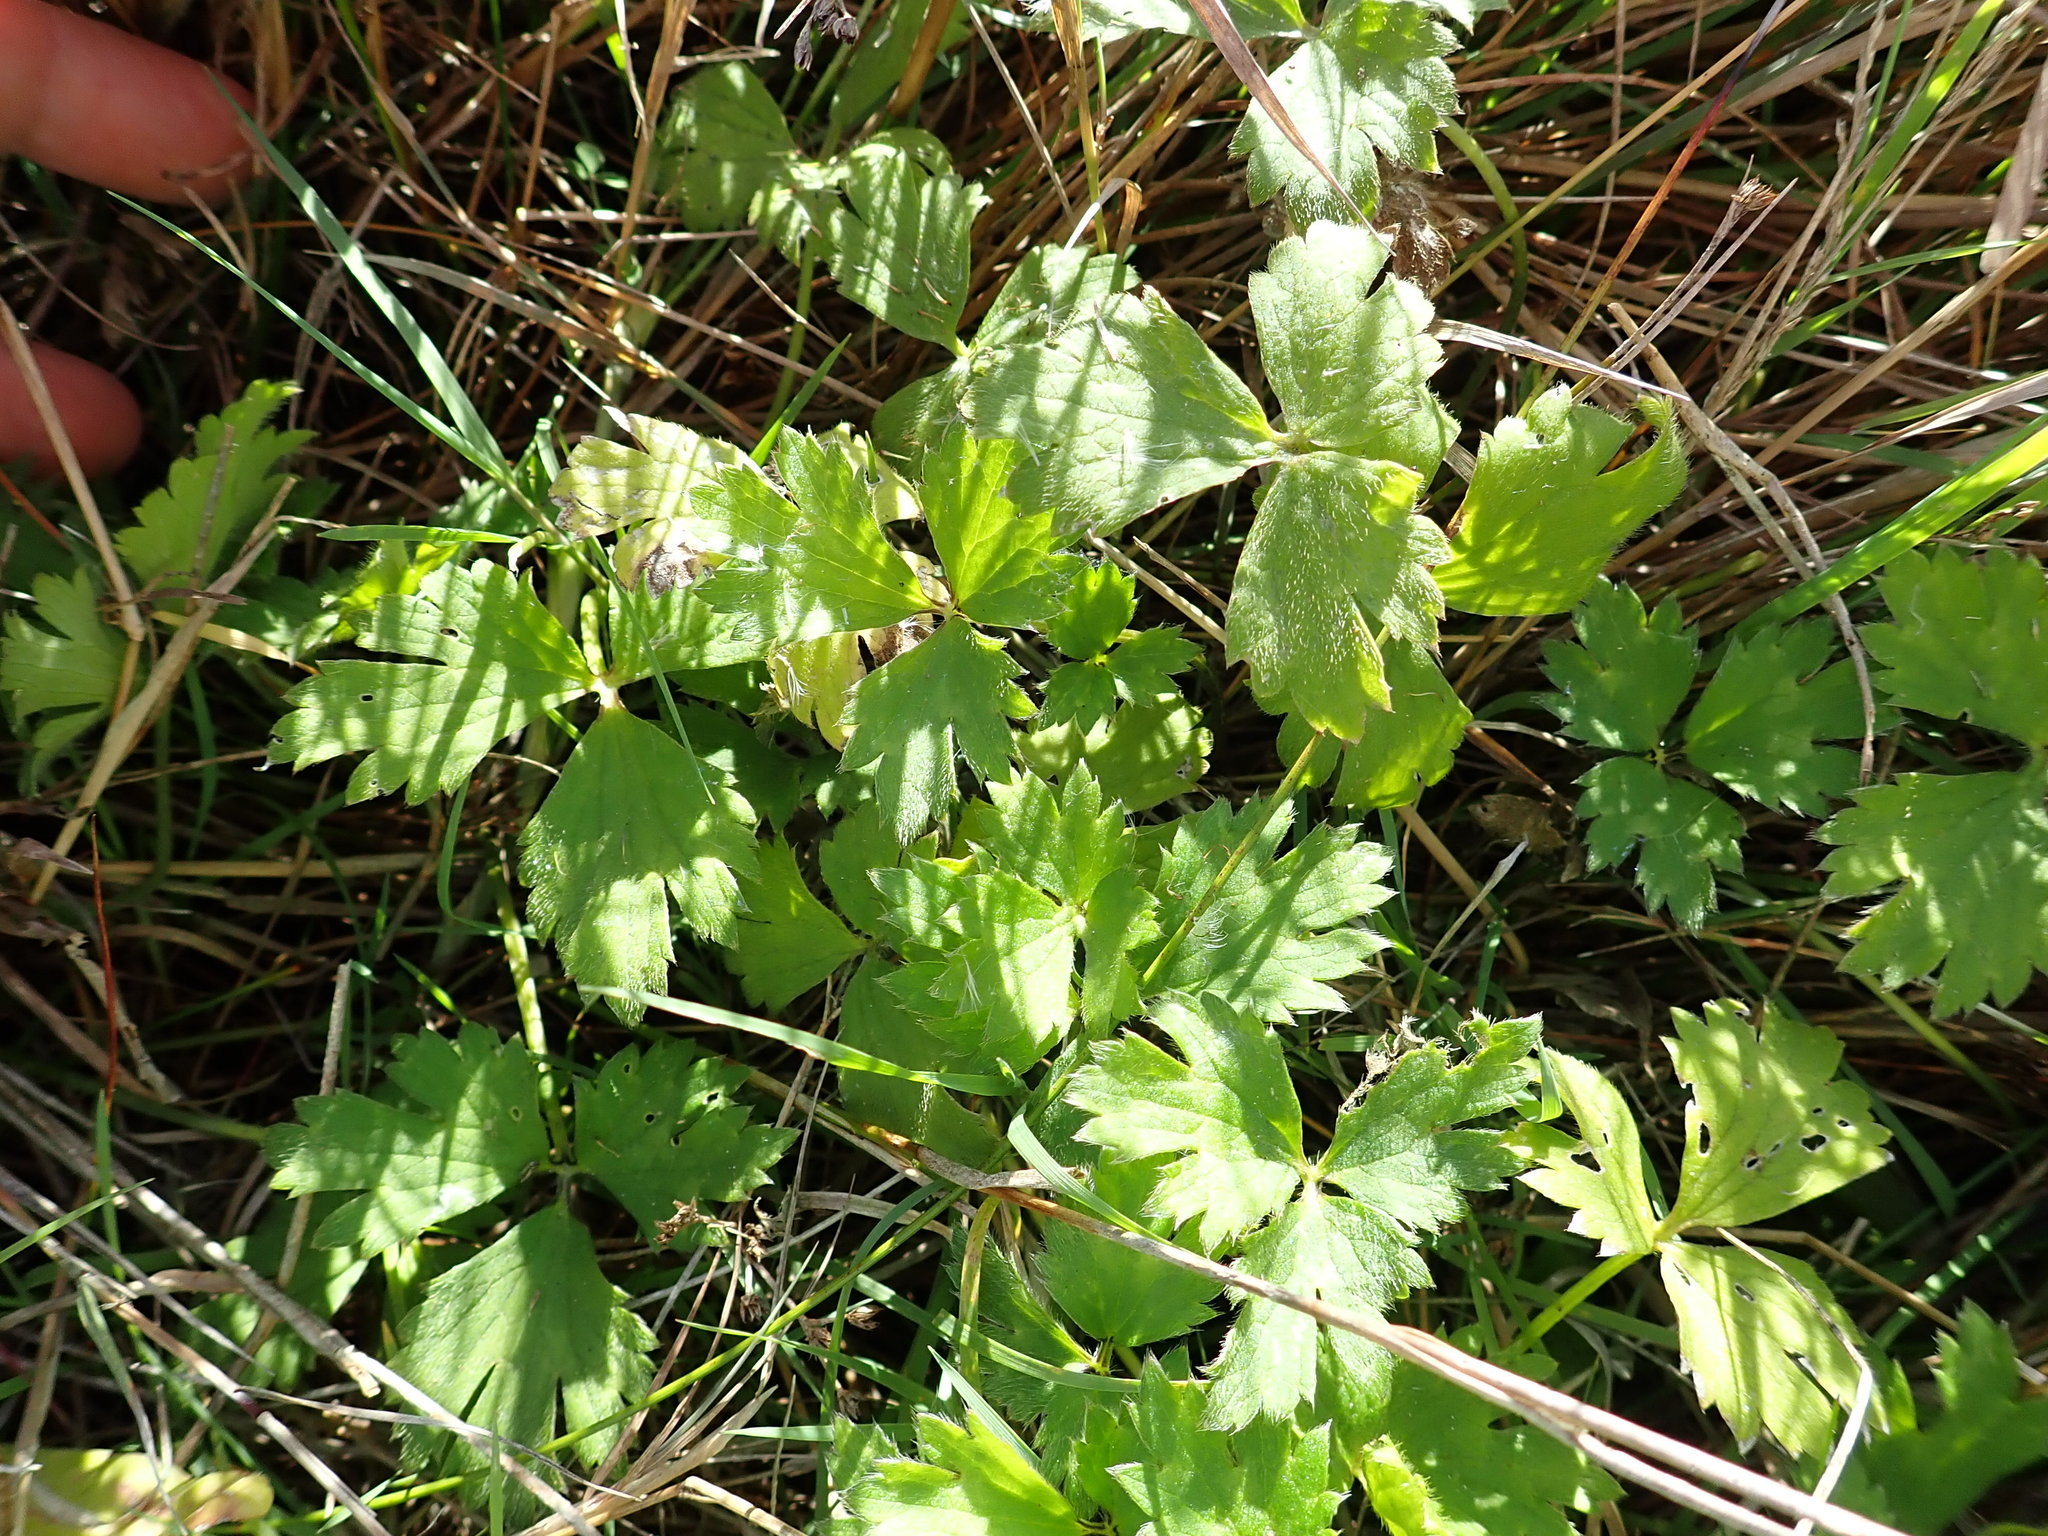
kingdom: Plantae
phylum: Tracheophyta
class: Magnoliopsida
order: Ranunculales
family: Ranunculaceae
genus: Ranunculus
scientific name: Ranunculus repens
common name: Creeping buttercup
